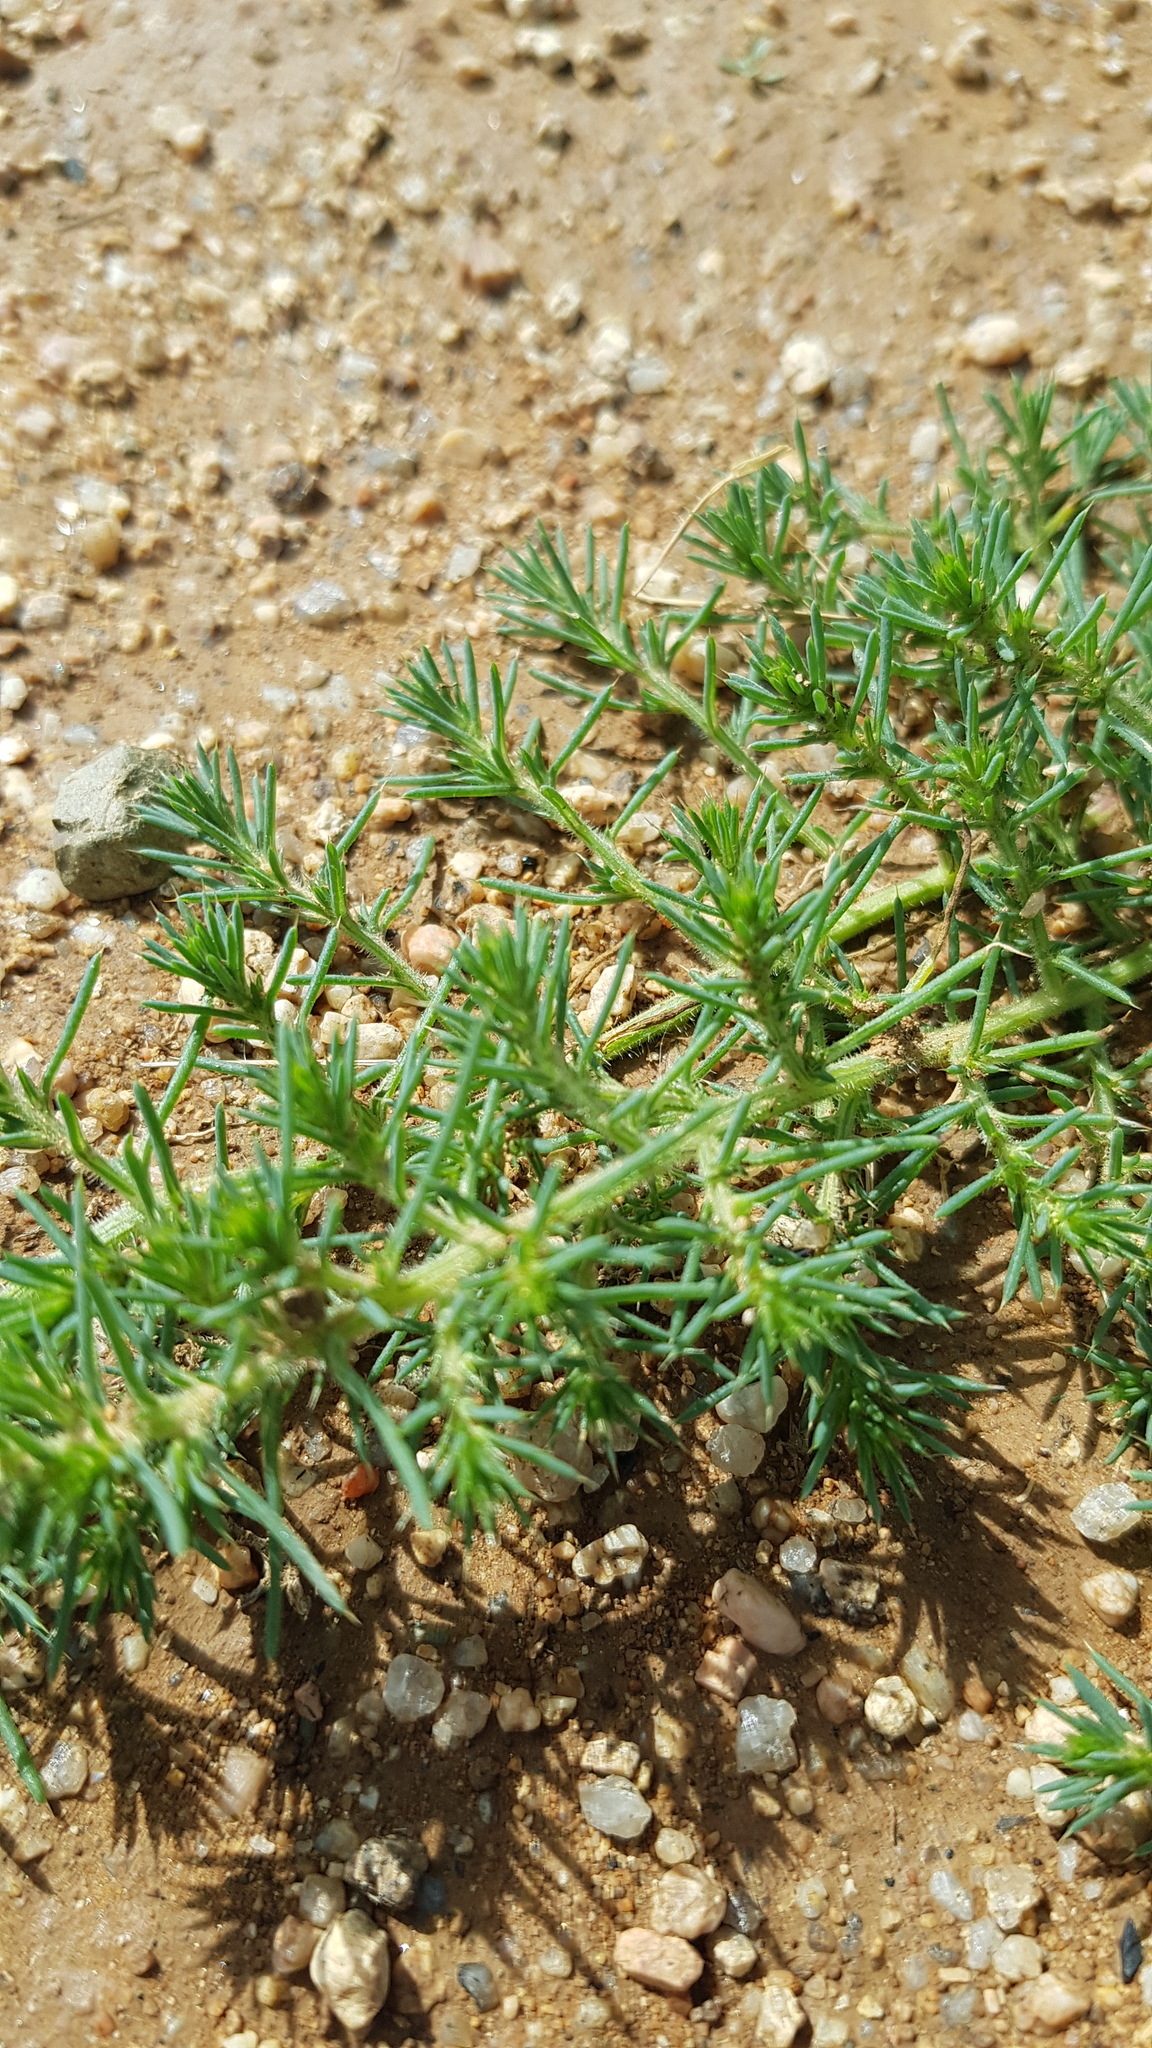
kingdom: Plantae
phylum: Tracheophyta
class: Magnoliopsida
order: Caryophyllales
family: Amaranthaceae
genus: Salsola
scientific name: Salsola collina
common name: Tumbleweed
